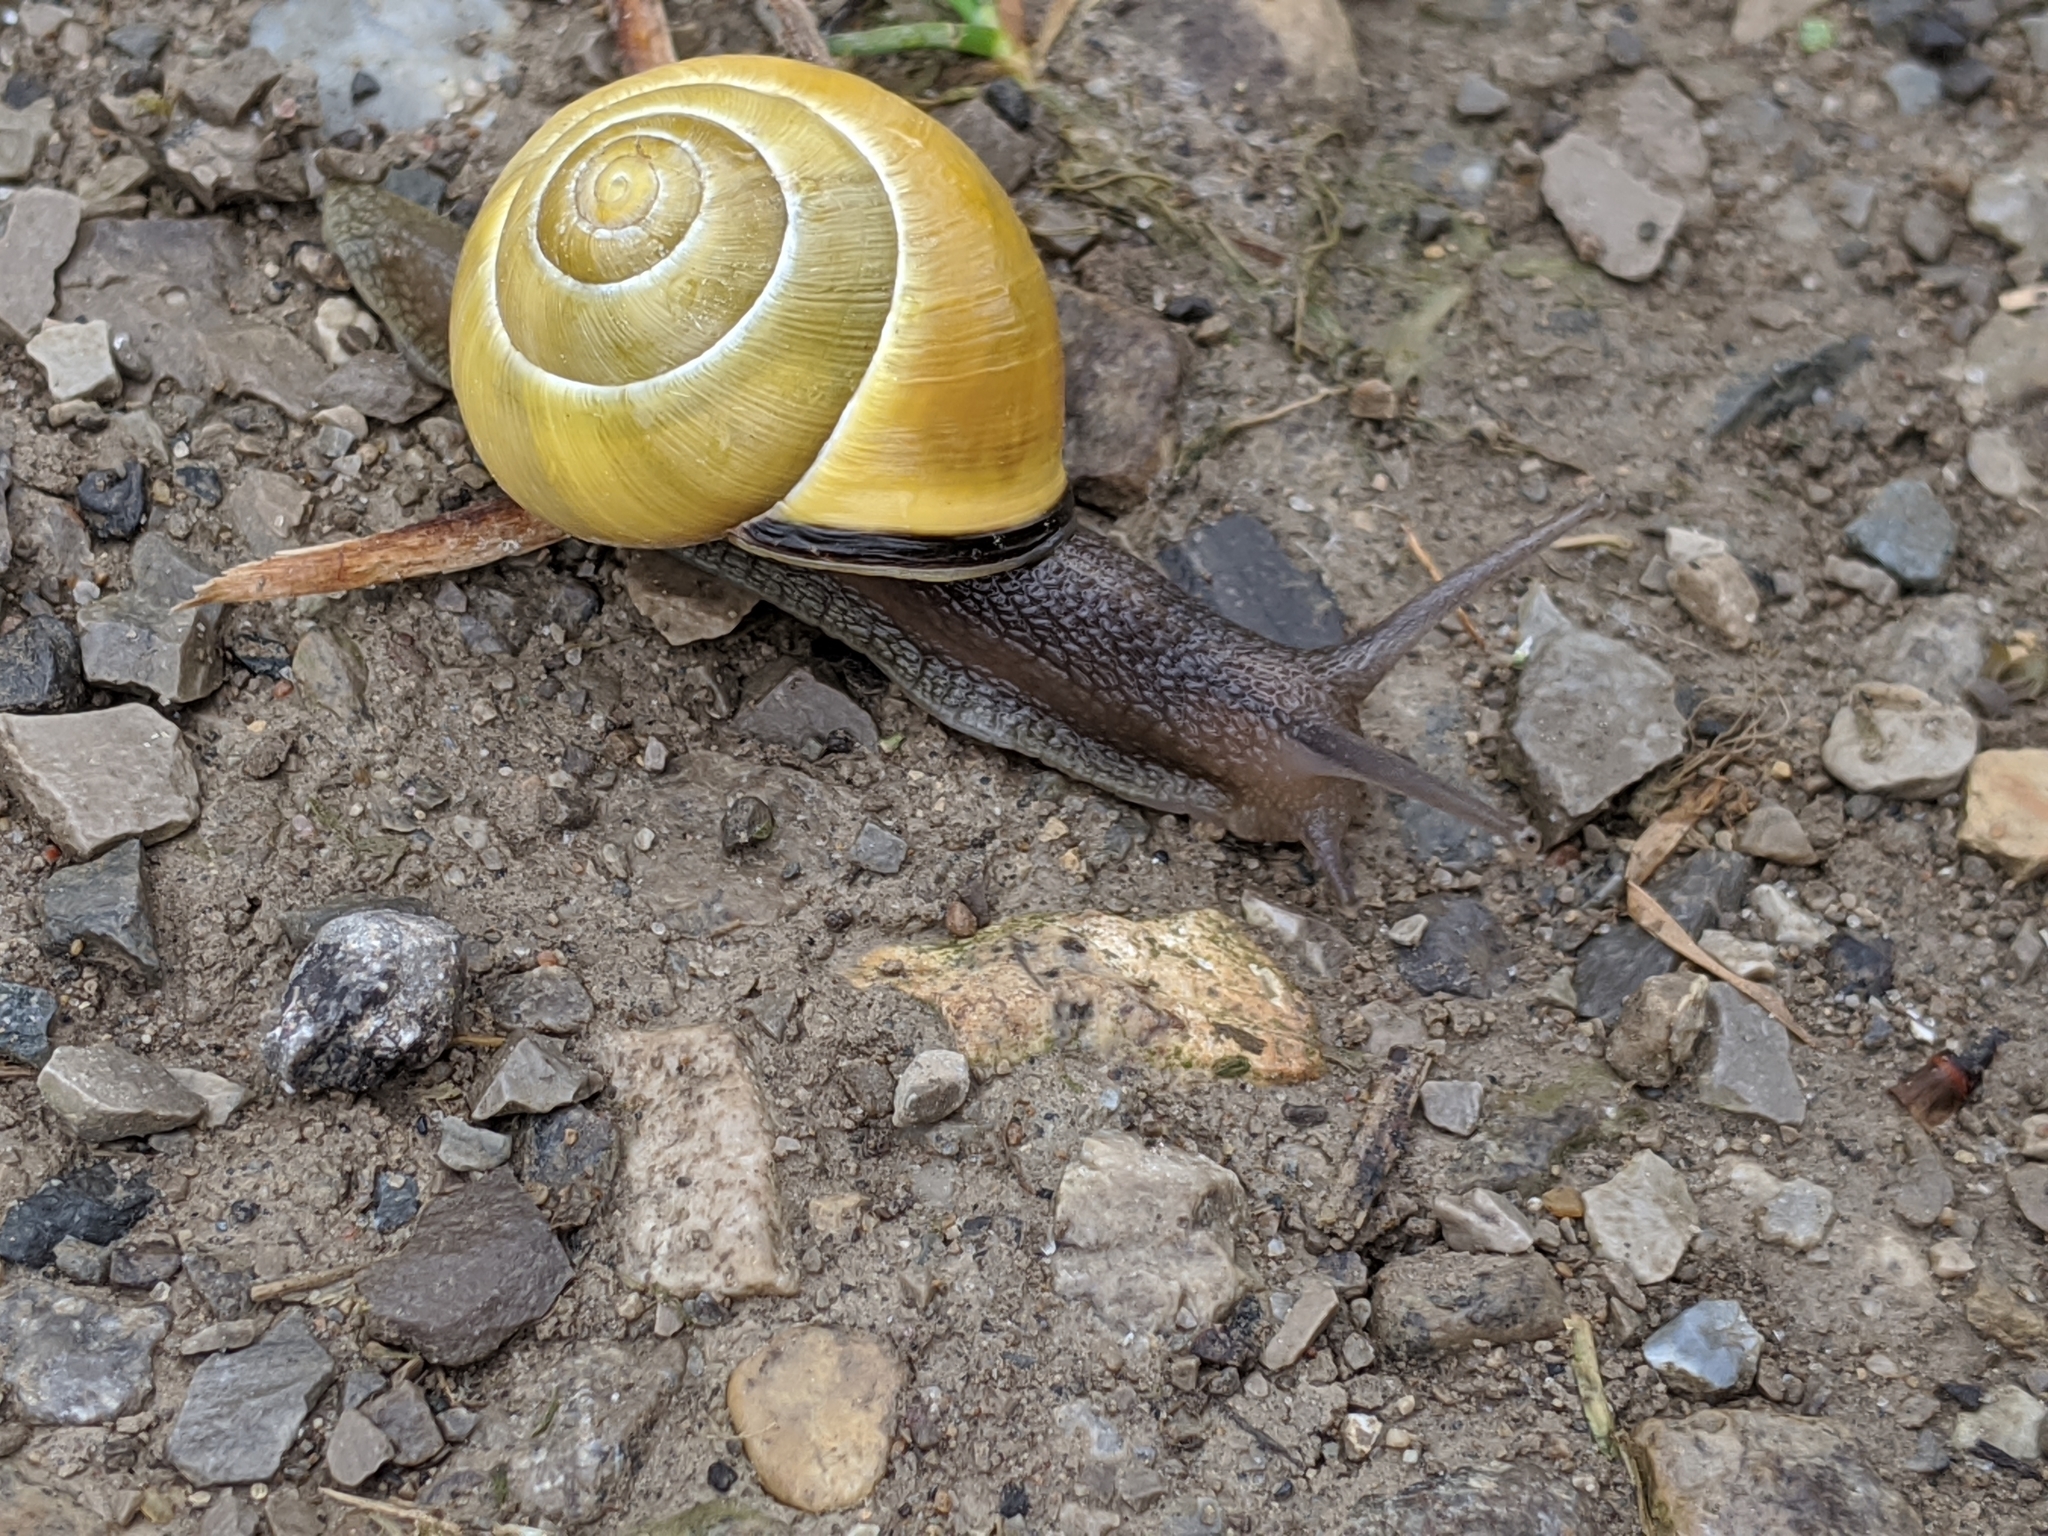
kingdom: Animalia
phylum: Mollusca
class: Gastropoda
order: Stylommatophora
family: Helicidae
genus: Cepaea
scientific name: Cepaea nemoralis
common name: Grovesnail
